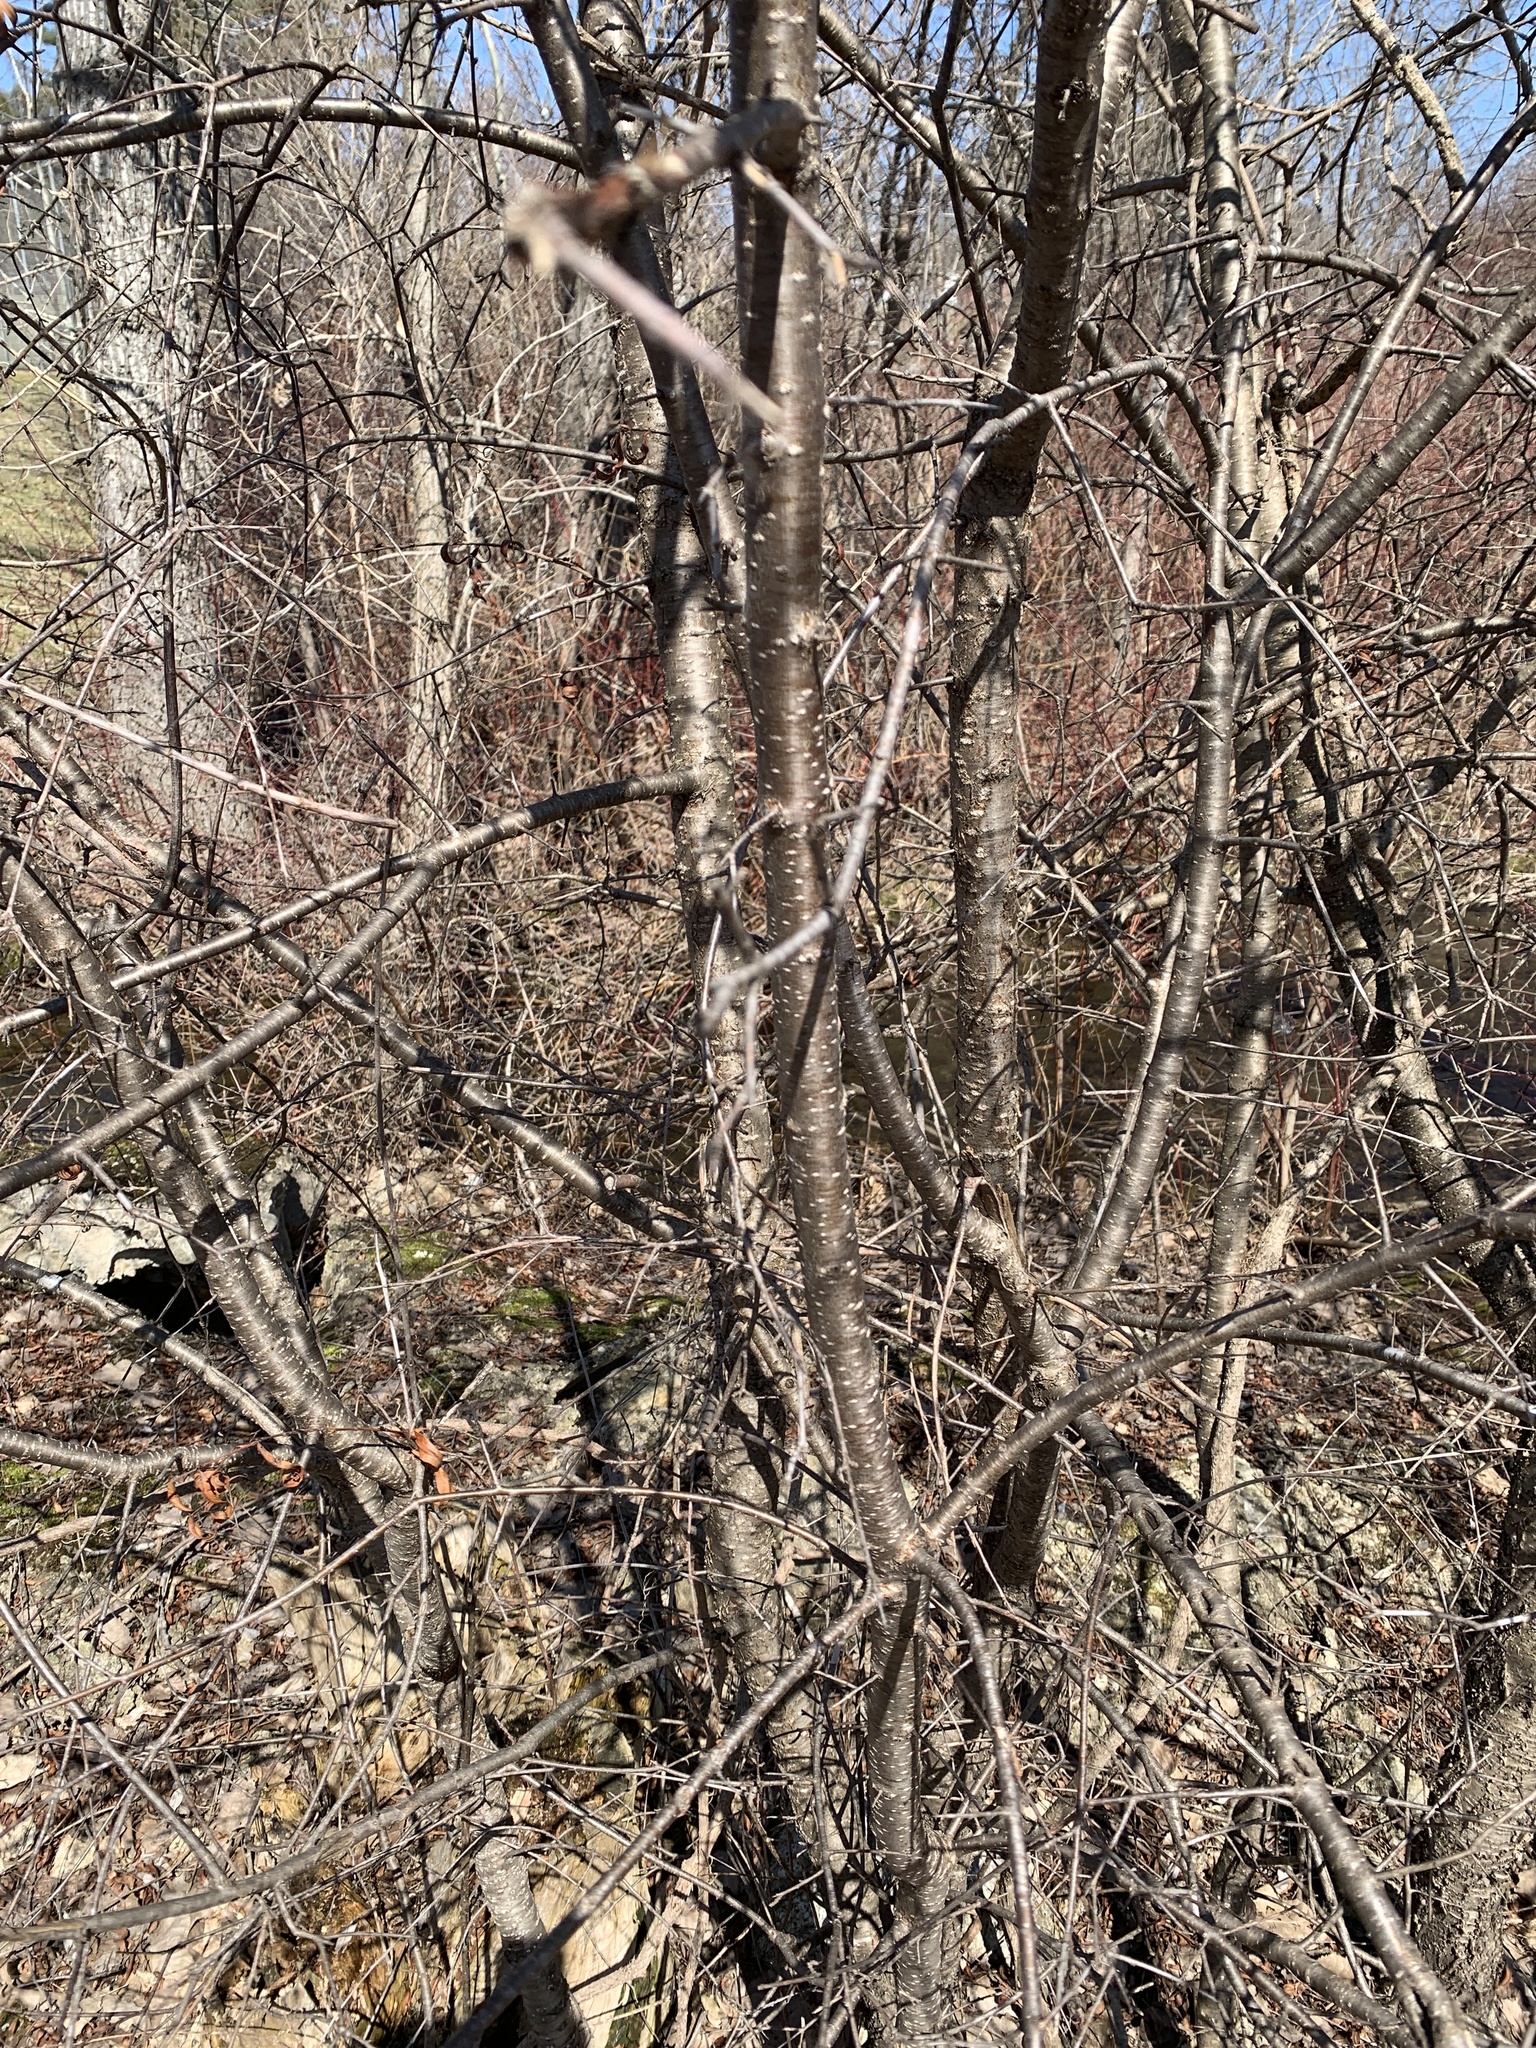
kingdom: Plantae
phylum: Tracheophyta
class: Magnoliopsida
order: Rosales
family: Rhamnaceae
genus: Rhamnus
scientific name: Rhamnus cathartica
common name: Common buckthorn
